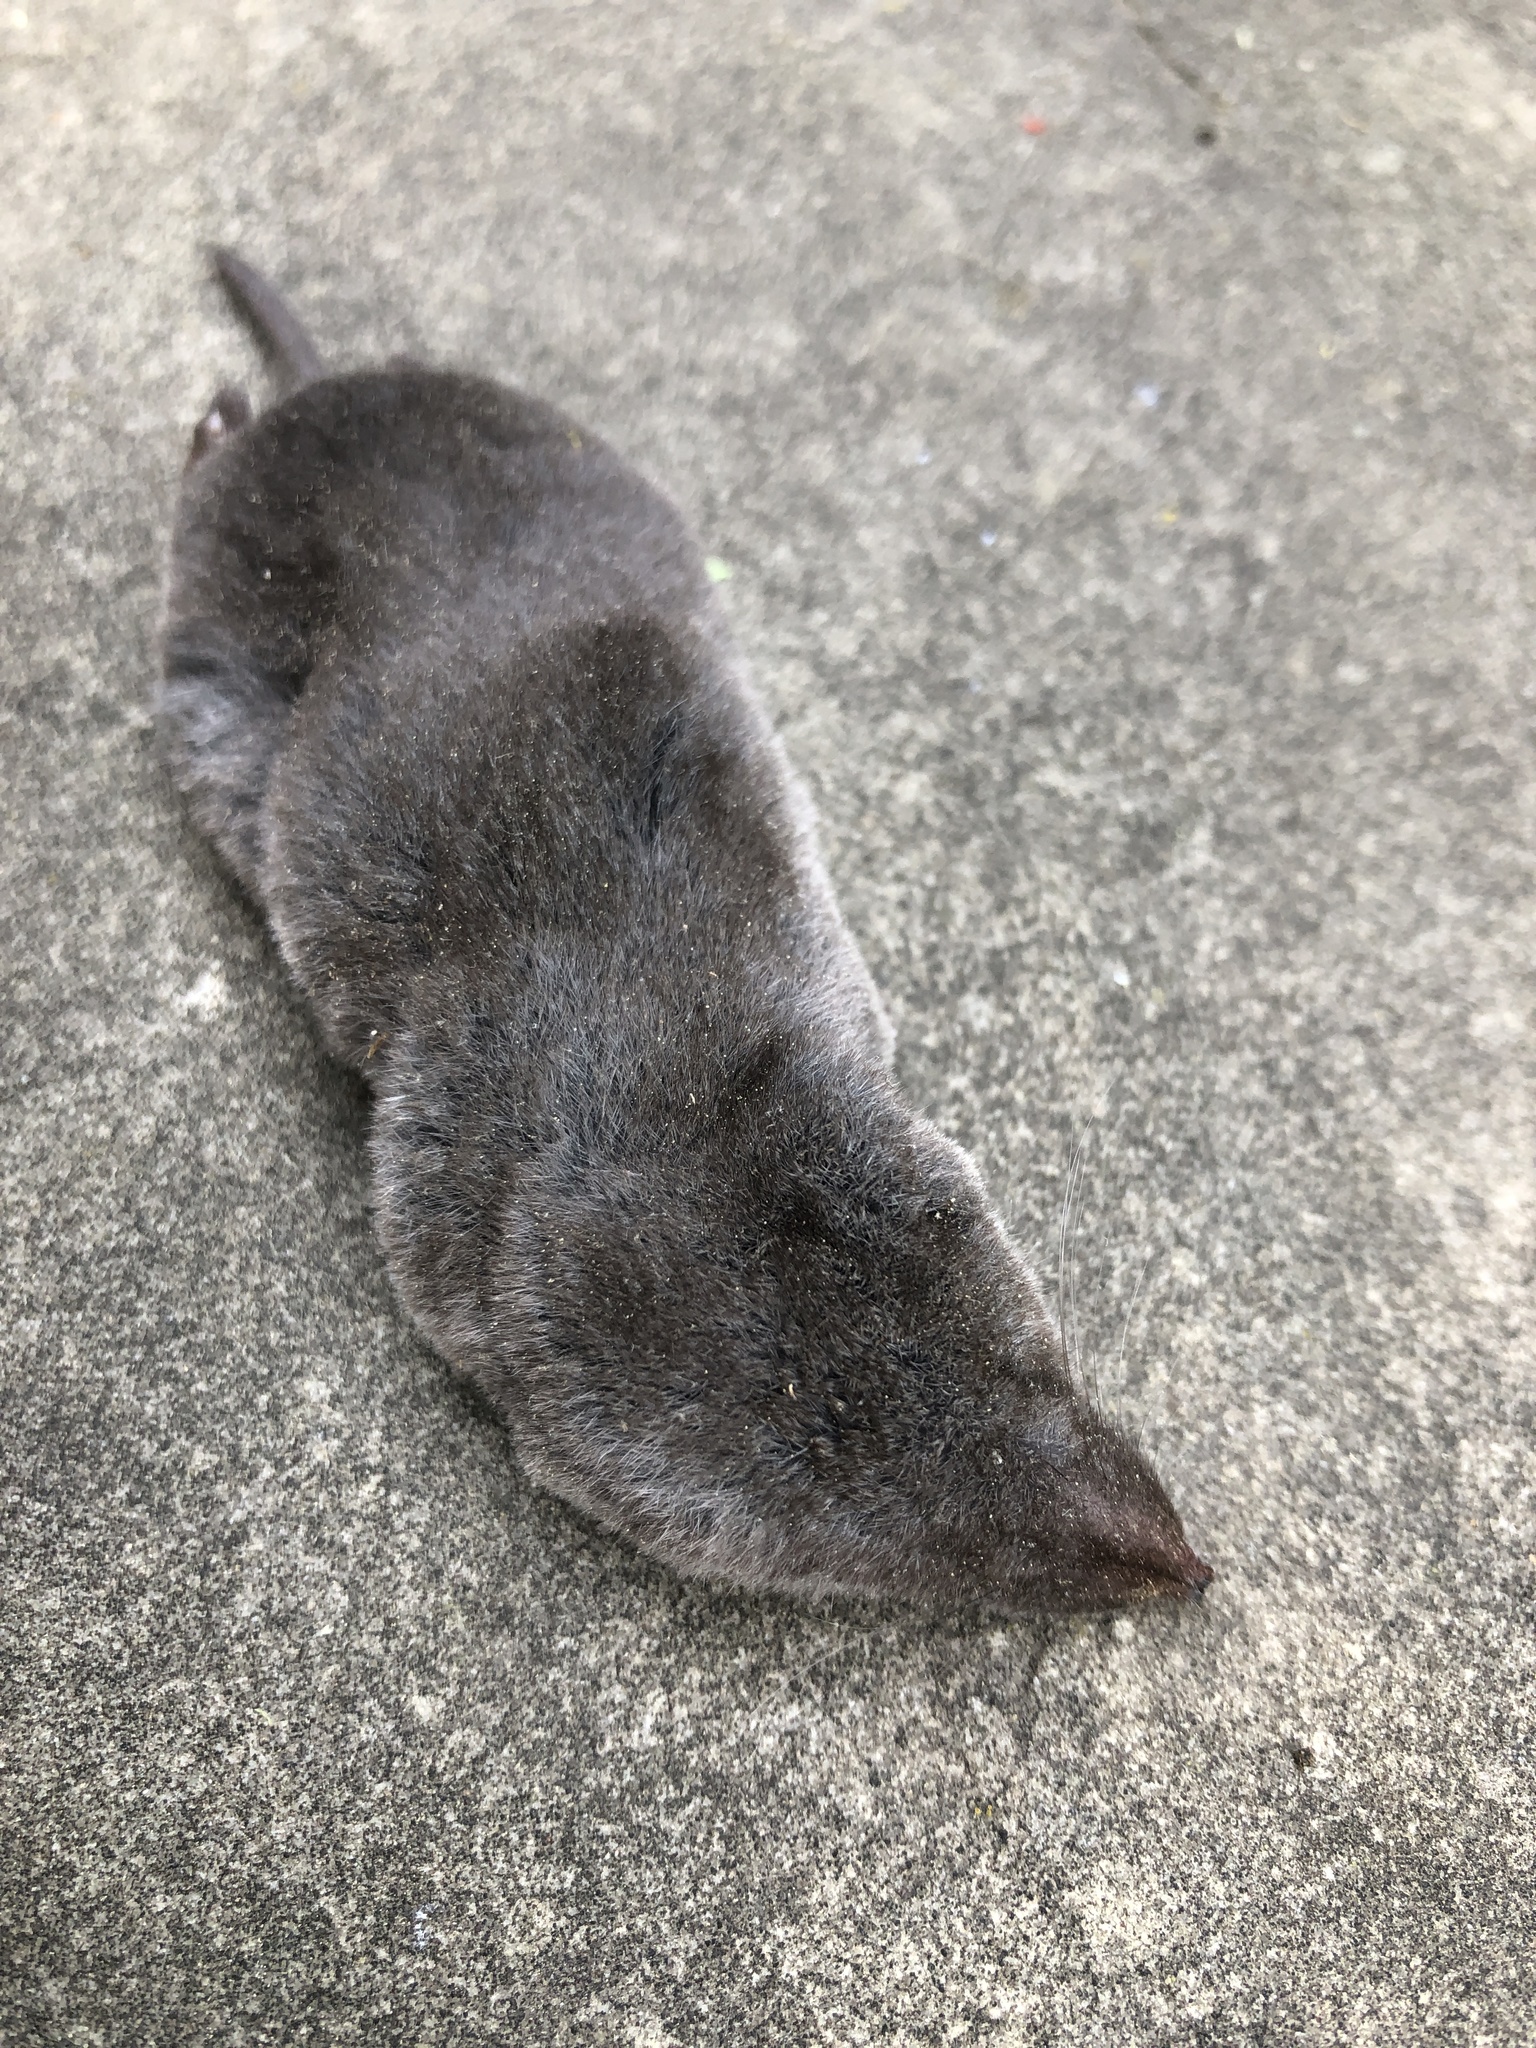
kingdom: Animalia
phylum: Chordata
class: Mammalia
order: Soricomorpha
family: Soricidae
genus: Blarina
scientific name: Blarina brevicauda
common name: Northern short-tailed shrew
